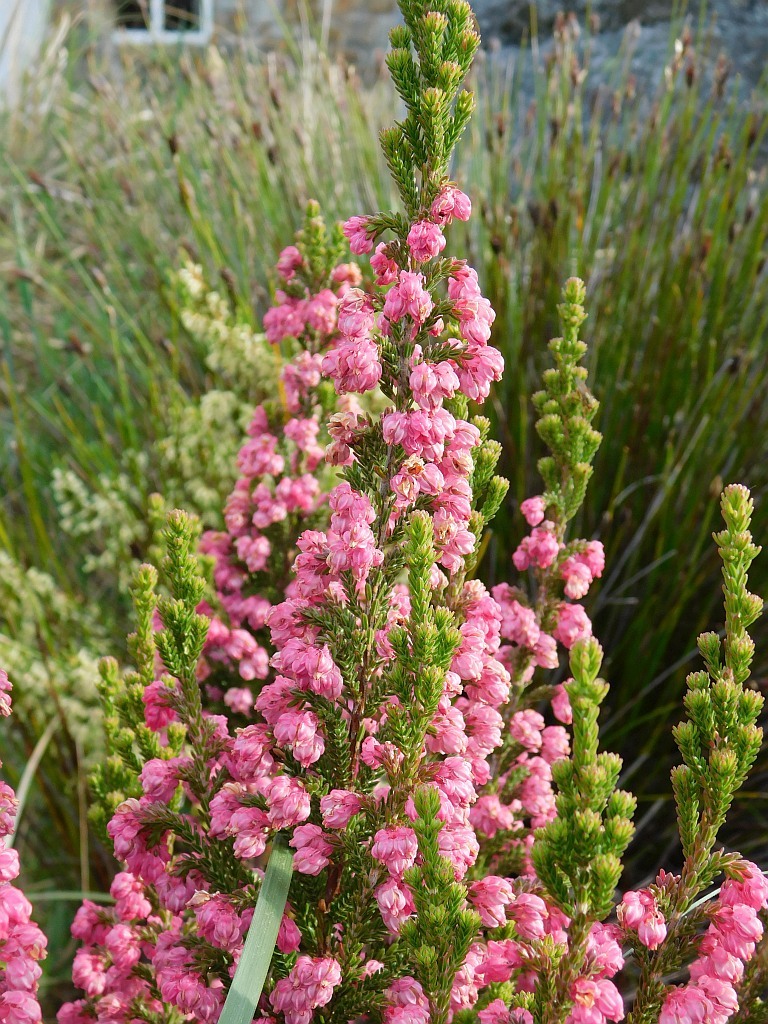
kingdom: Plantae
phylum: Tracheophyta
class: Magnoliopsida
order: Ericales
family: Ericaceae
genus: Erica
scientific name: Erica tegulifolia
